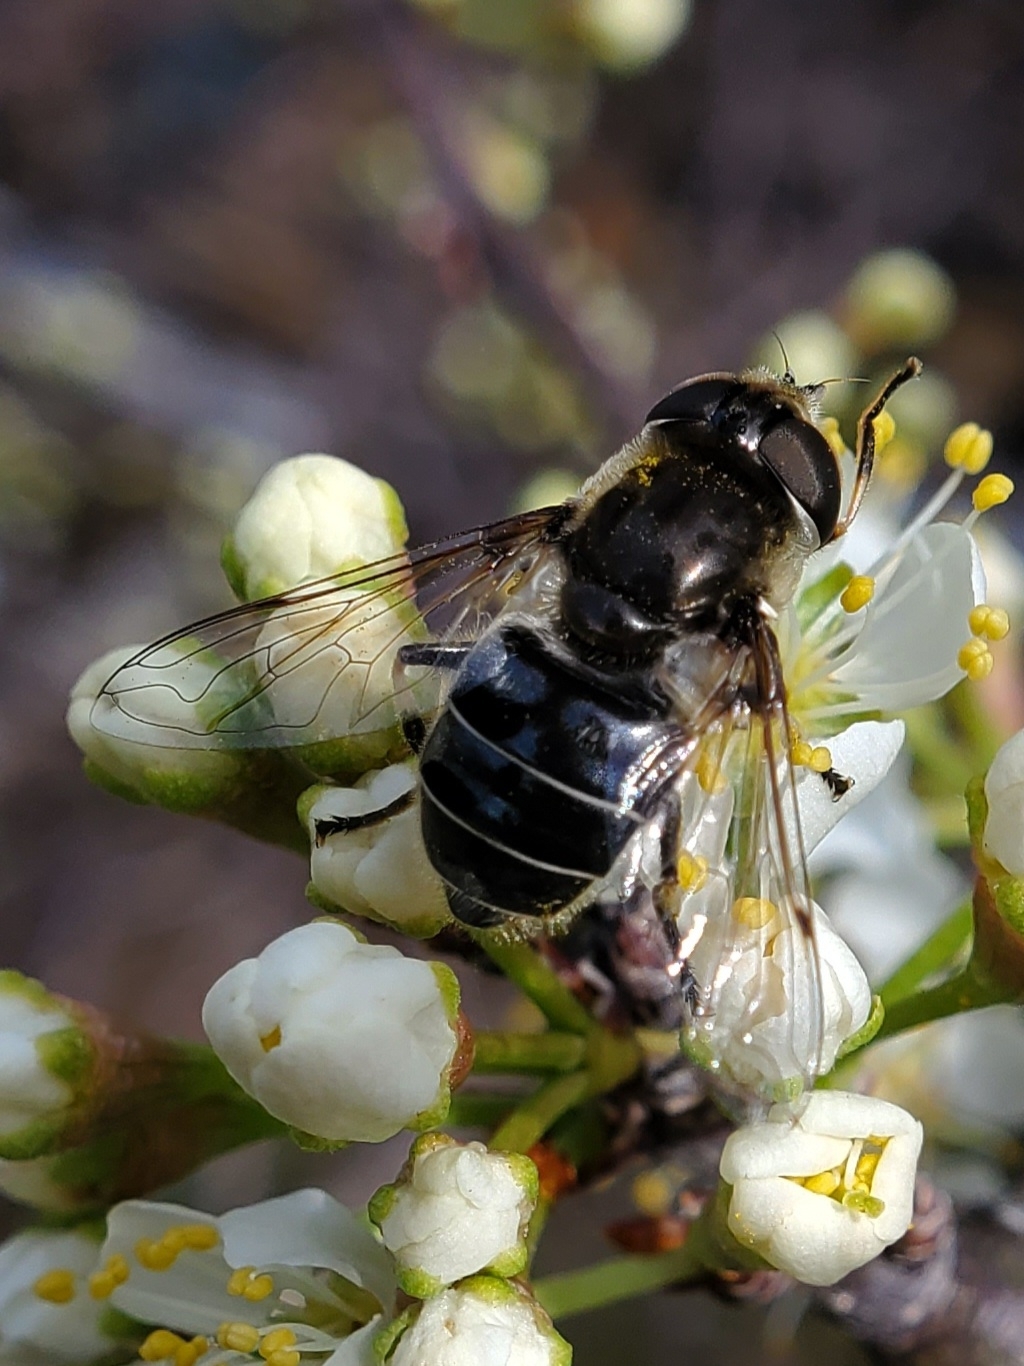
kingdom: Animalia
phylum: Arthropoda
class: Insecta
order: Diptera
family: Syrphidae
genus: Eristalis
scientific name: Eristalis dimidiata
